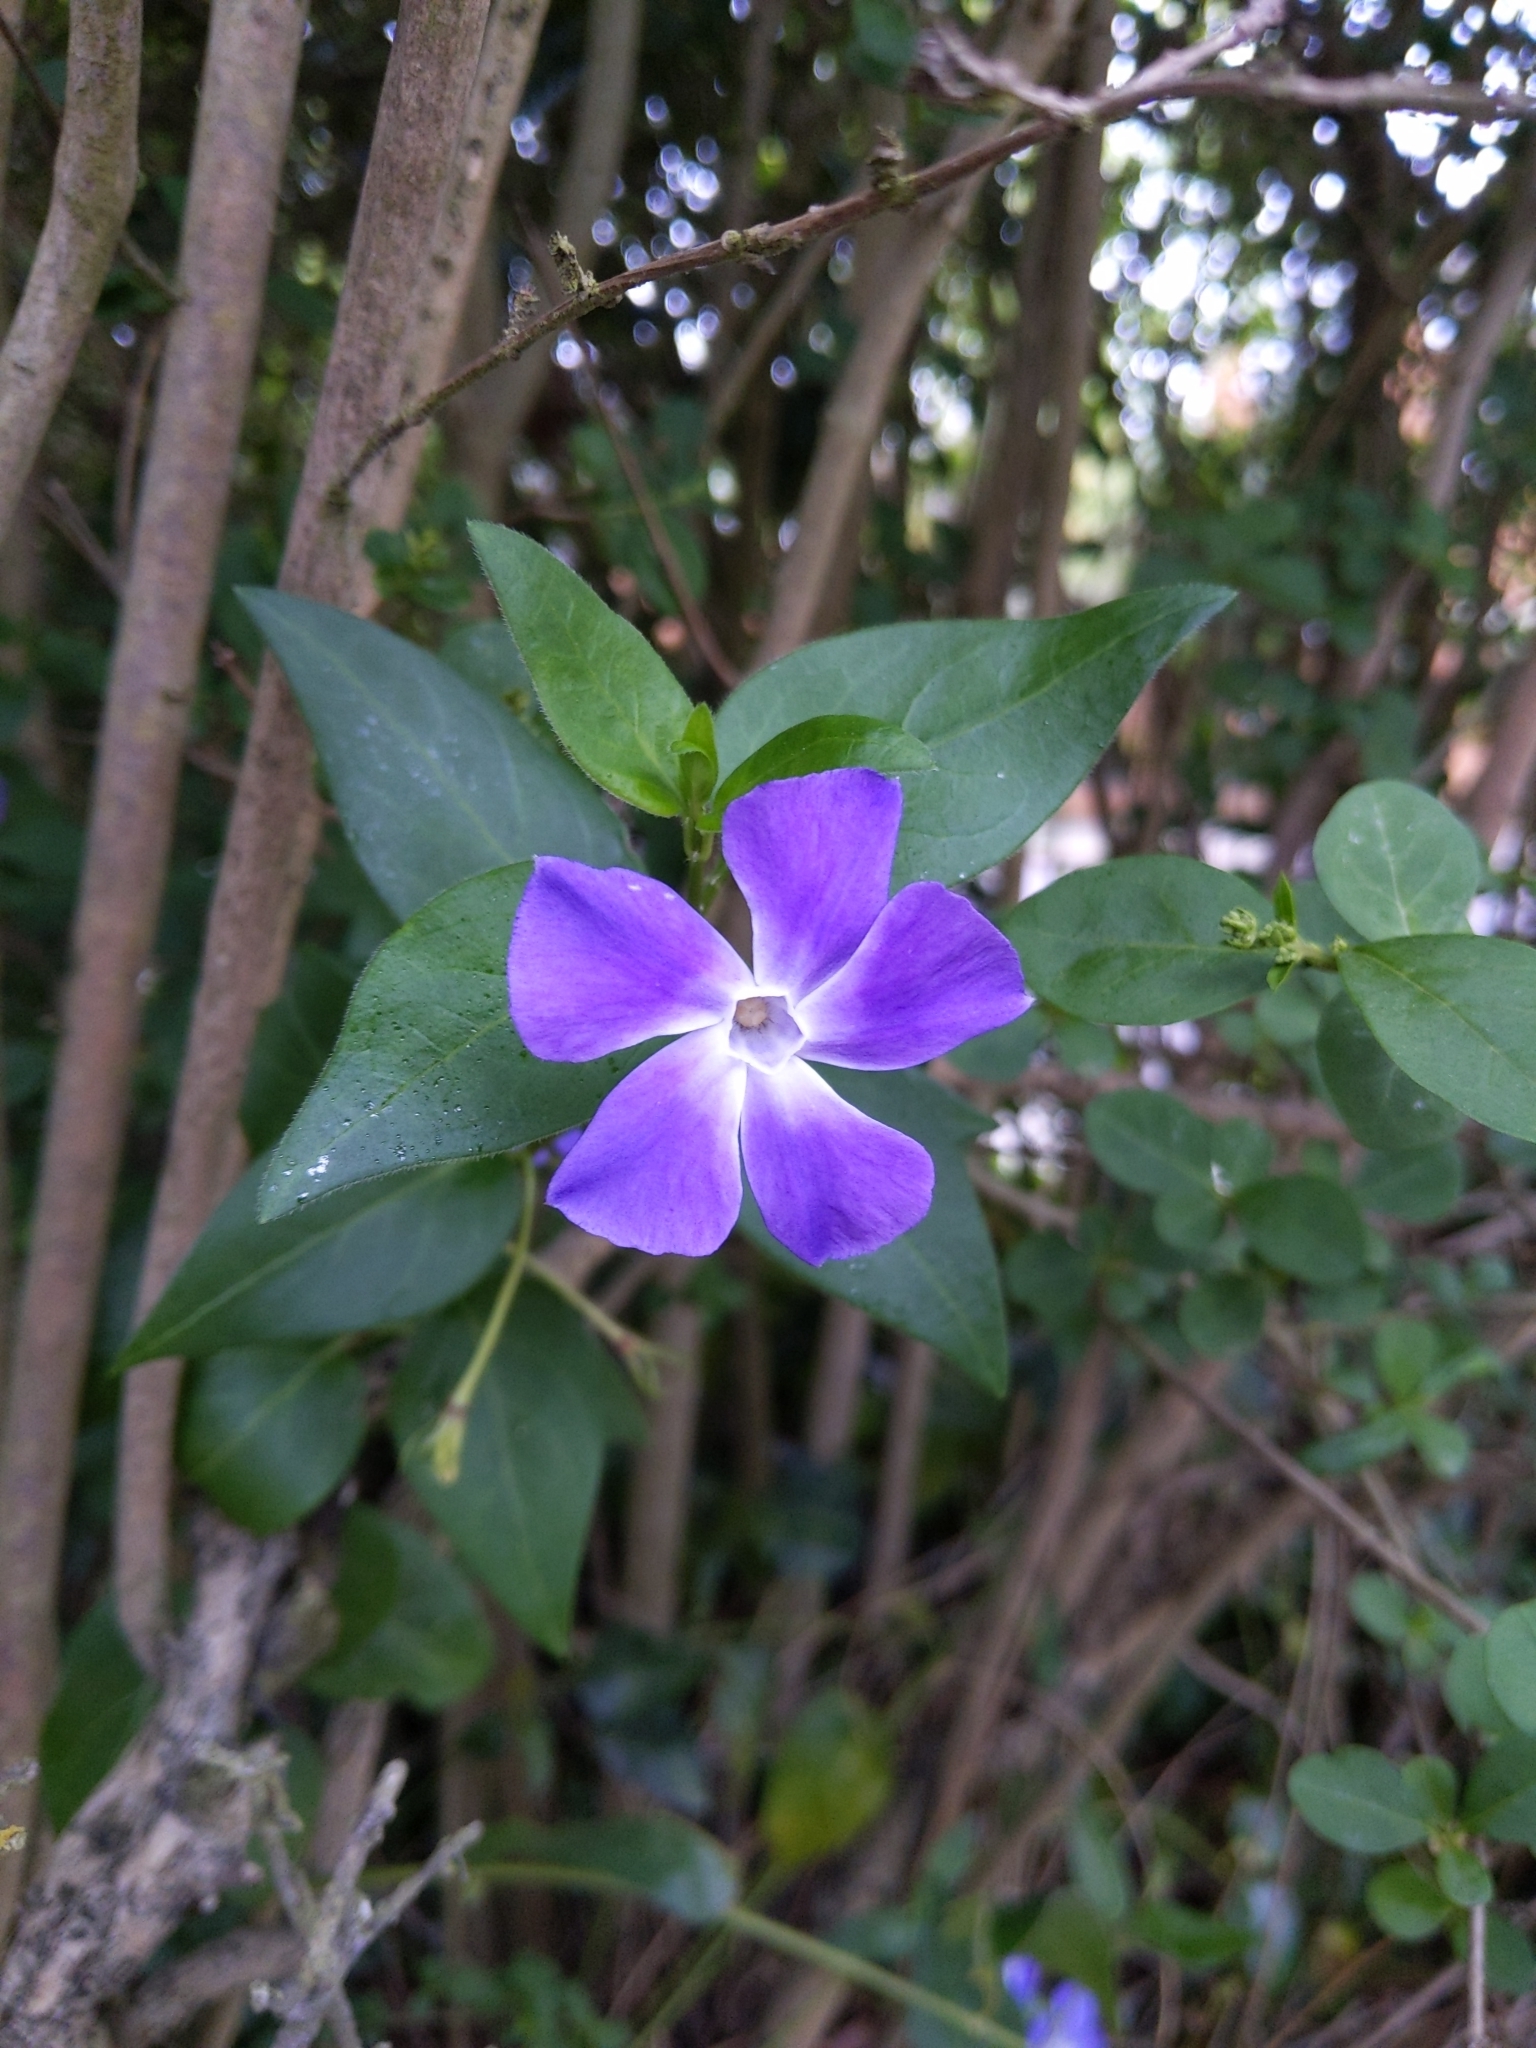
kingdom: Plantae
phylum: Tracheophyta
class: Magnoliopsida
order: Gentianales
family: Apocynaceae
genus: Vinca
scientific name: Vinca major
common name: Greater periwinkle
